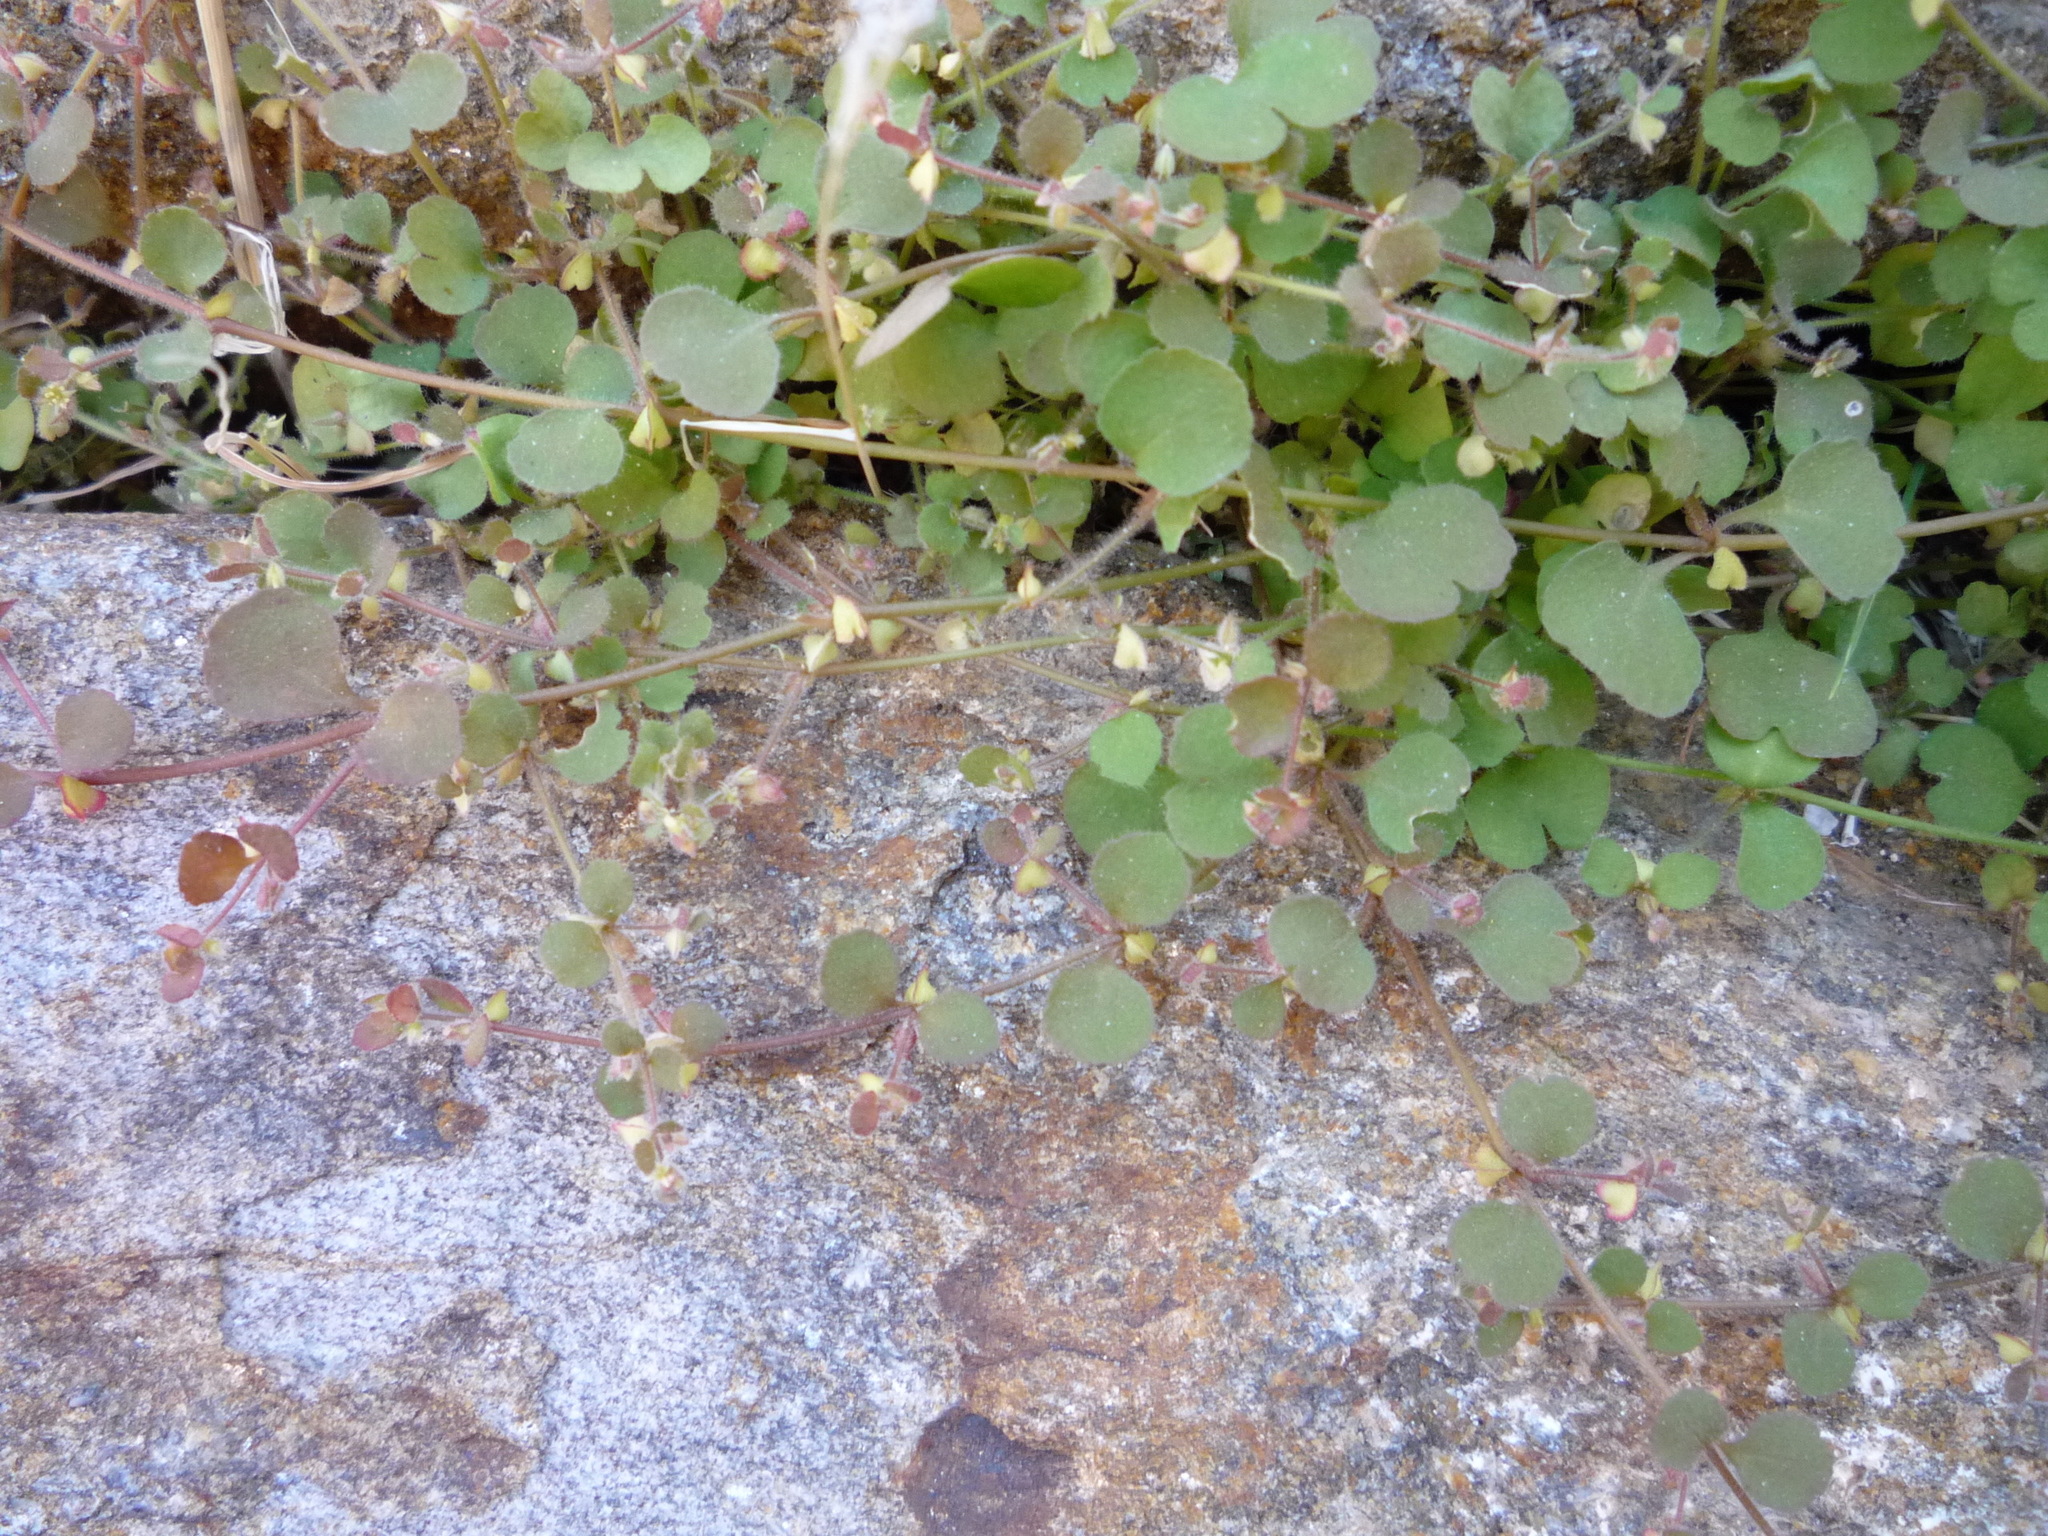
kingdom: Plantae
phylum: Tracheophyta
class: Magnoliopsida
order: Caryophyllales
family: Polygonaceae
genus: Pterostegia
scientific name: Pterostegia drymarioides
